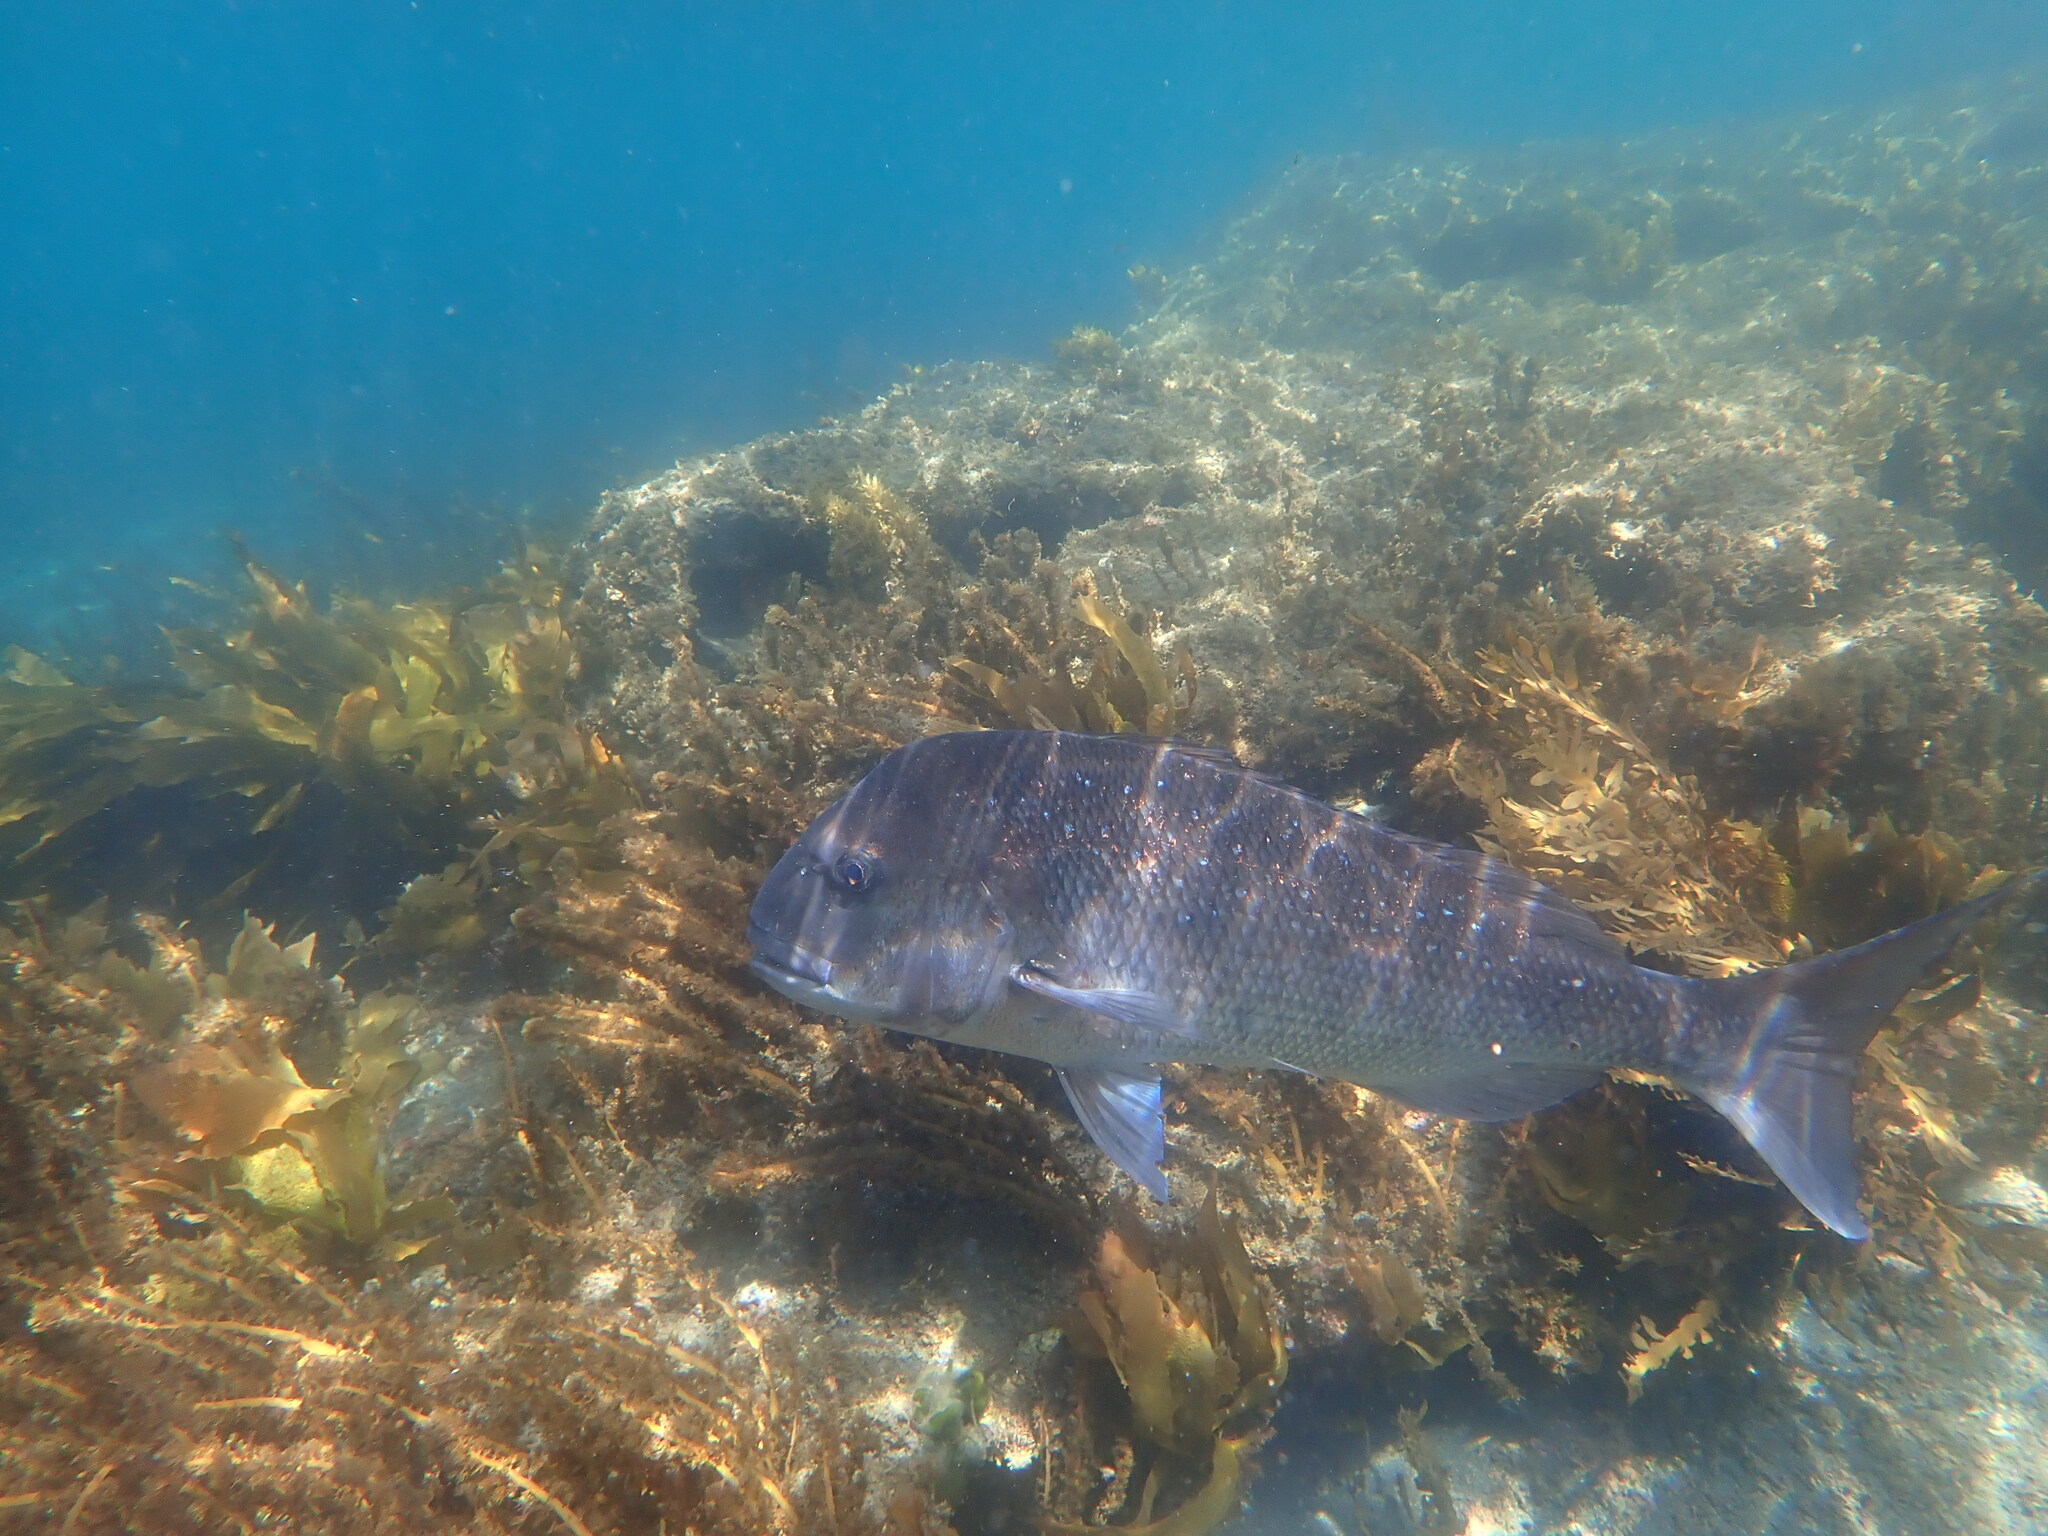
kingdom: Animalia
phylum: Chordata
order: Perciformes
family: Sparidae
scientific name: Sparidae
